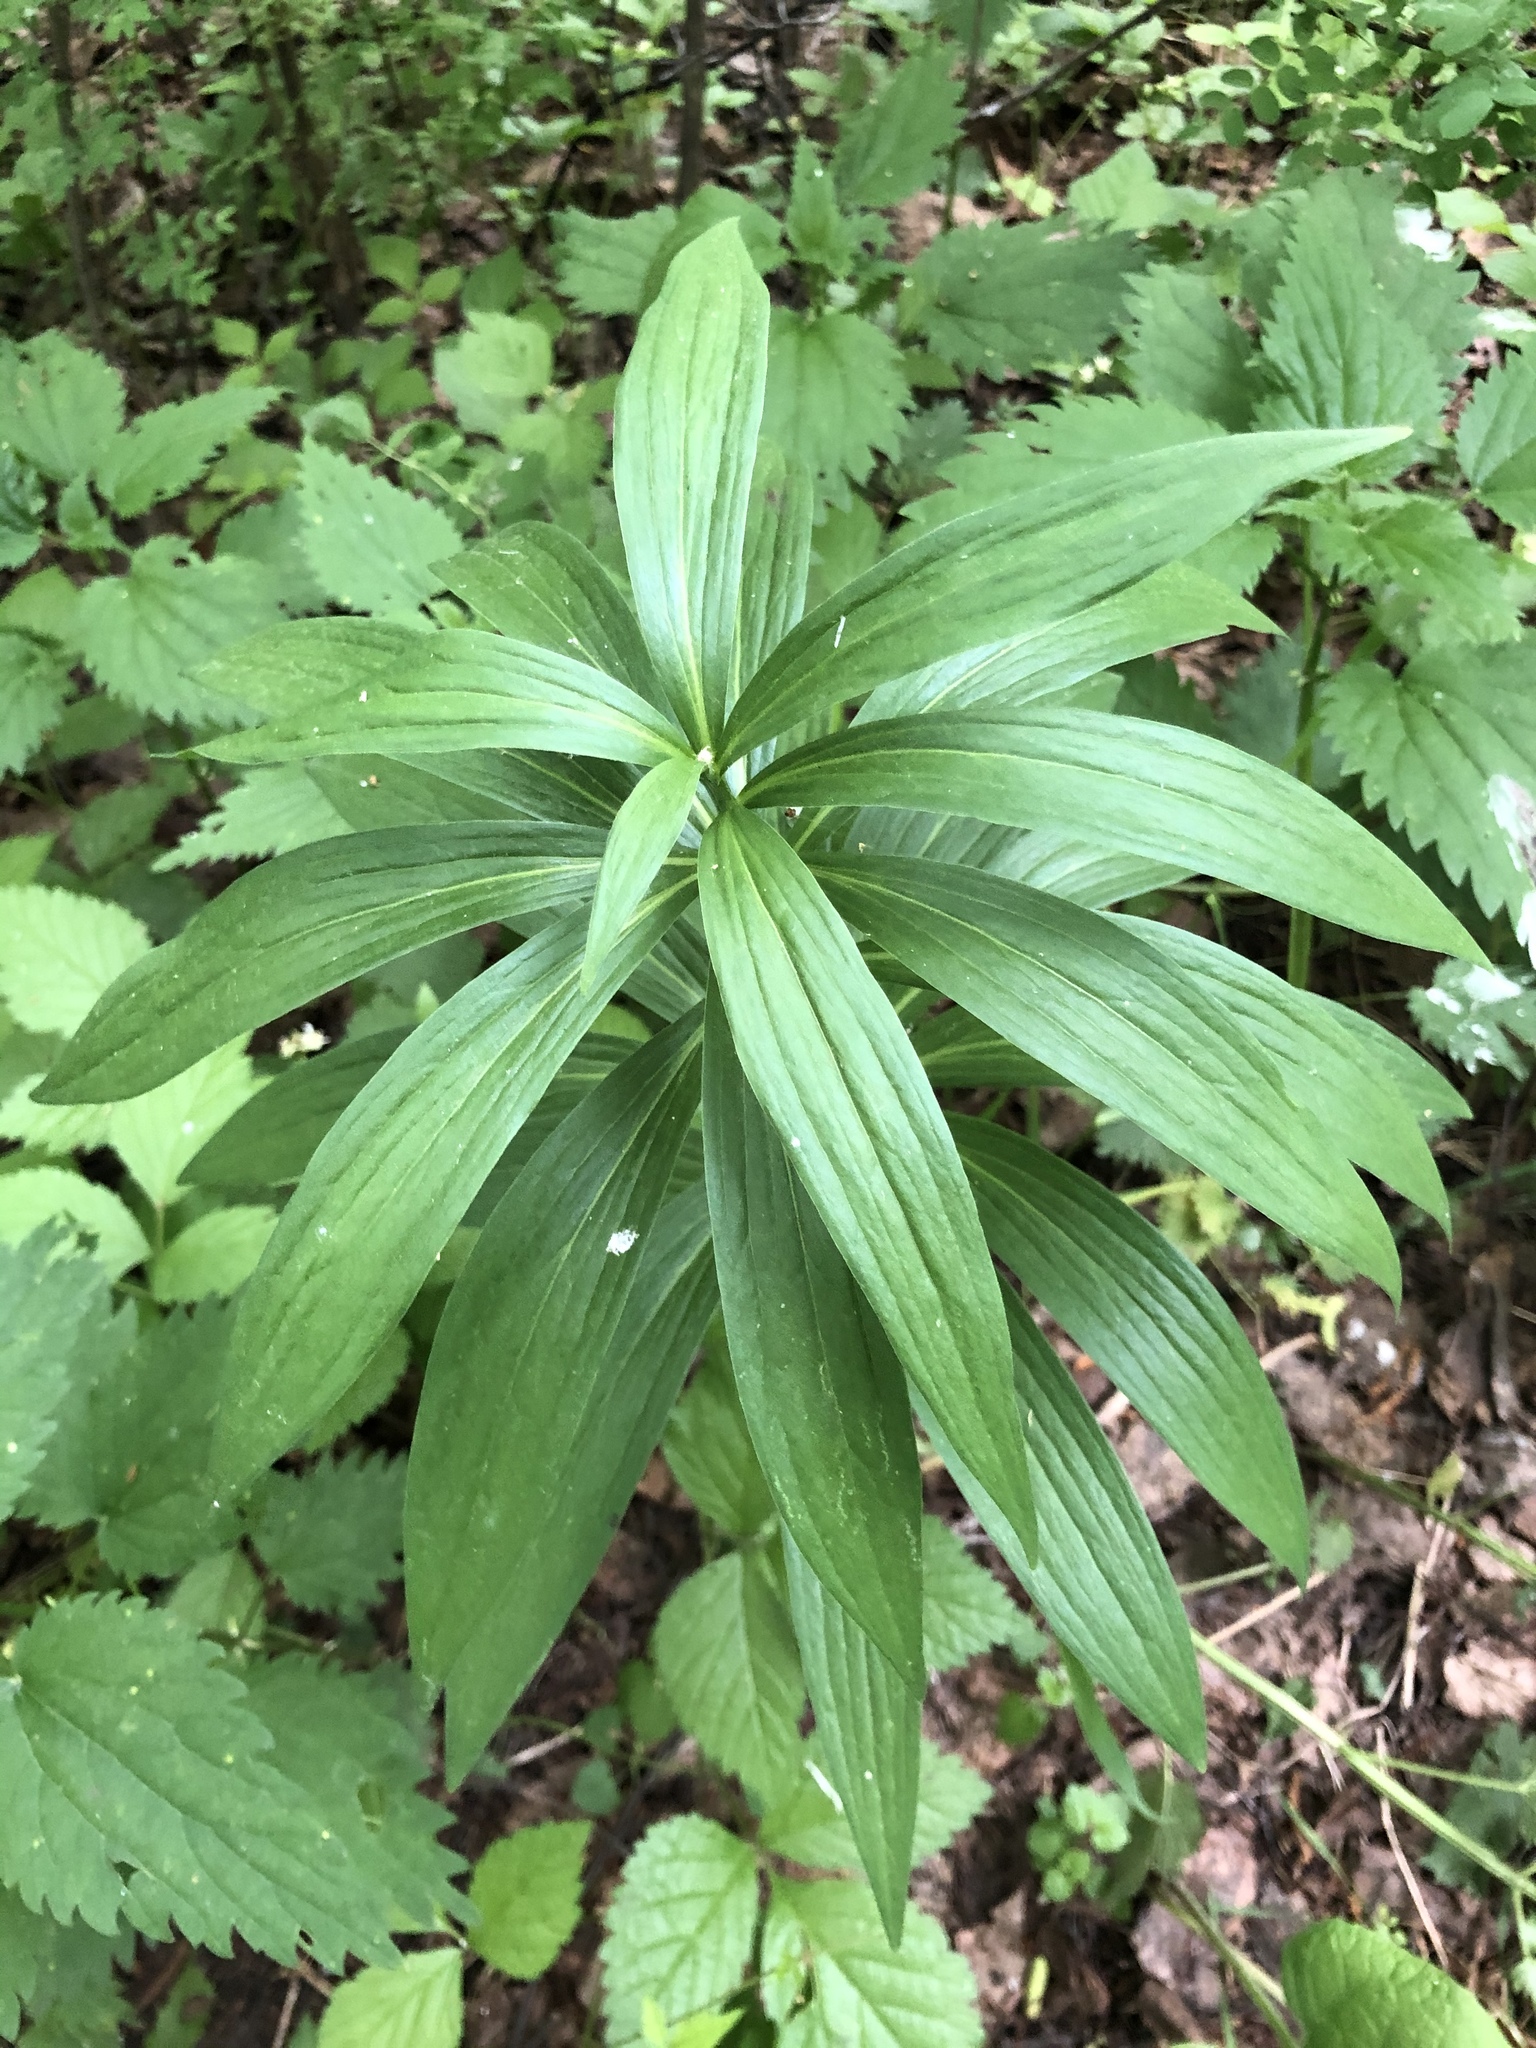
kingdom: Plantae
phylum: Tracheophyta
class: Liliopsida
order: Liliales
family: Liliaceae
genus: Lilium
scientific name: Lilium martagon
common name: Martagon lily
